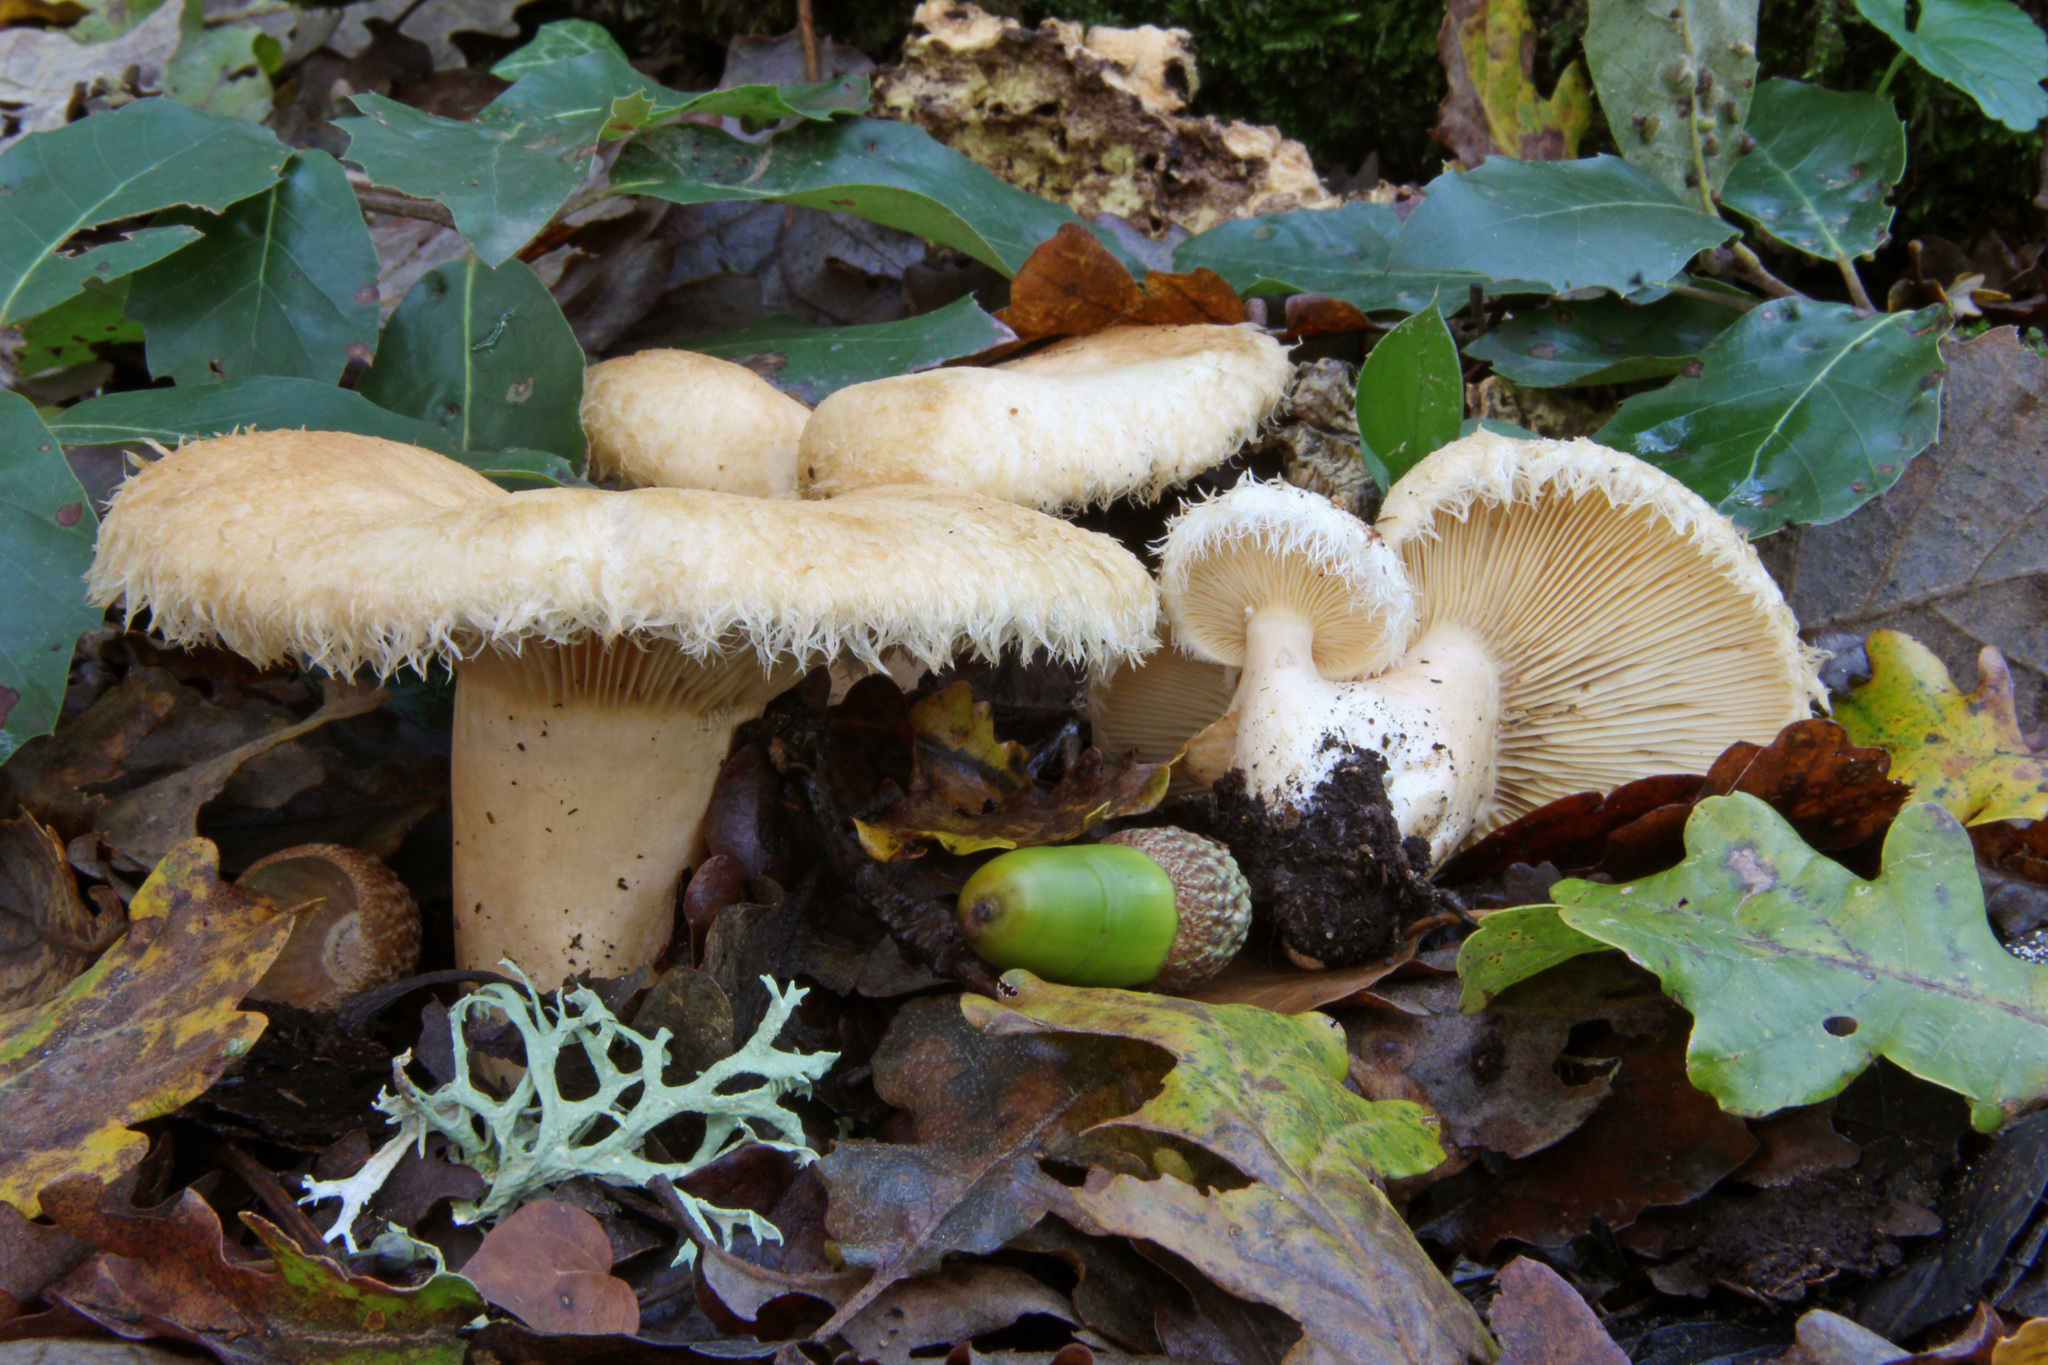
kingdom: Fungi
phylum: Basidiomycota
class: Agaricomycetes
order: Russulales
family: Russulaceae
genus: Lactarius
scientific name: Lactarius mairei
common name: Whiskery milkcap
